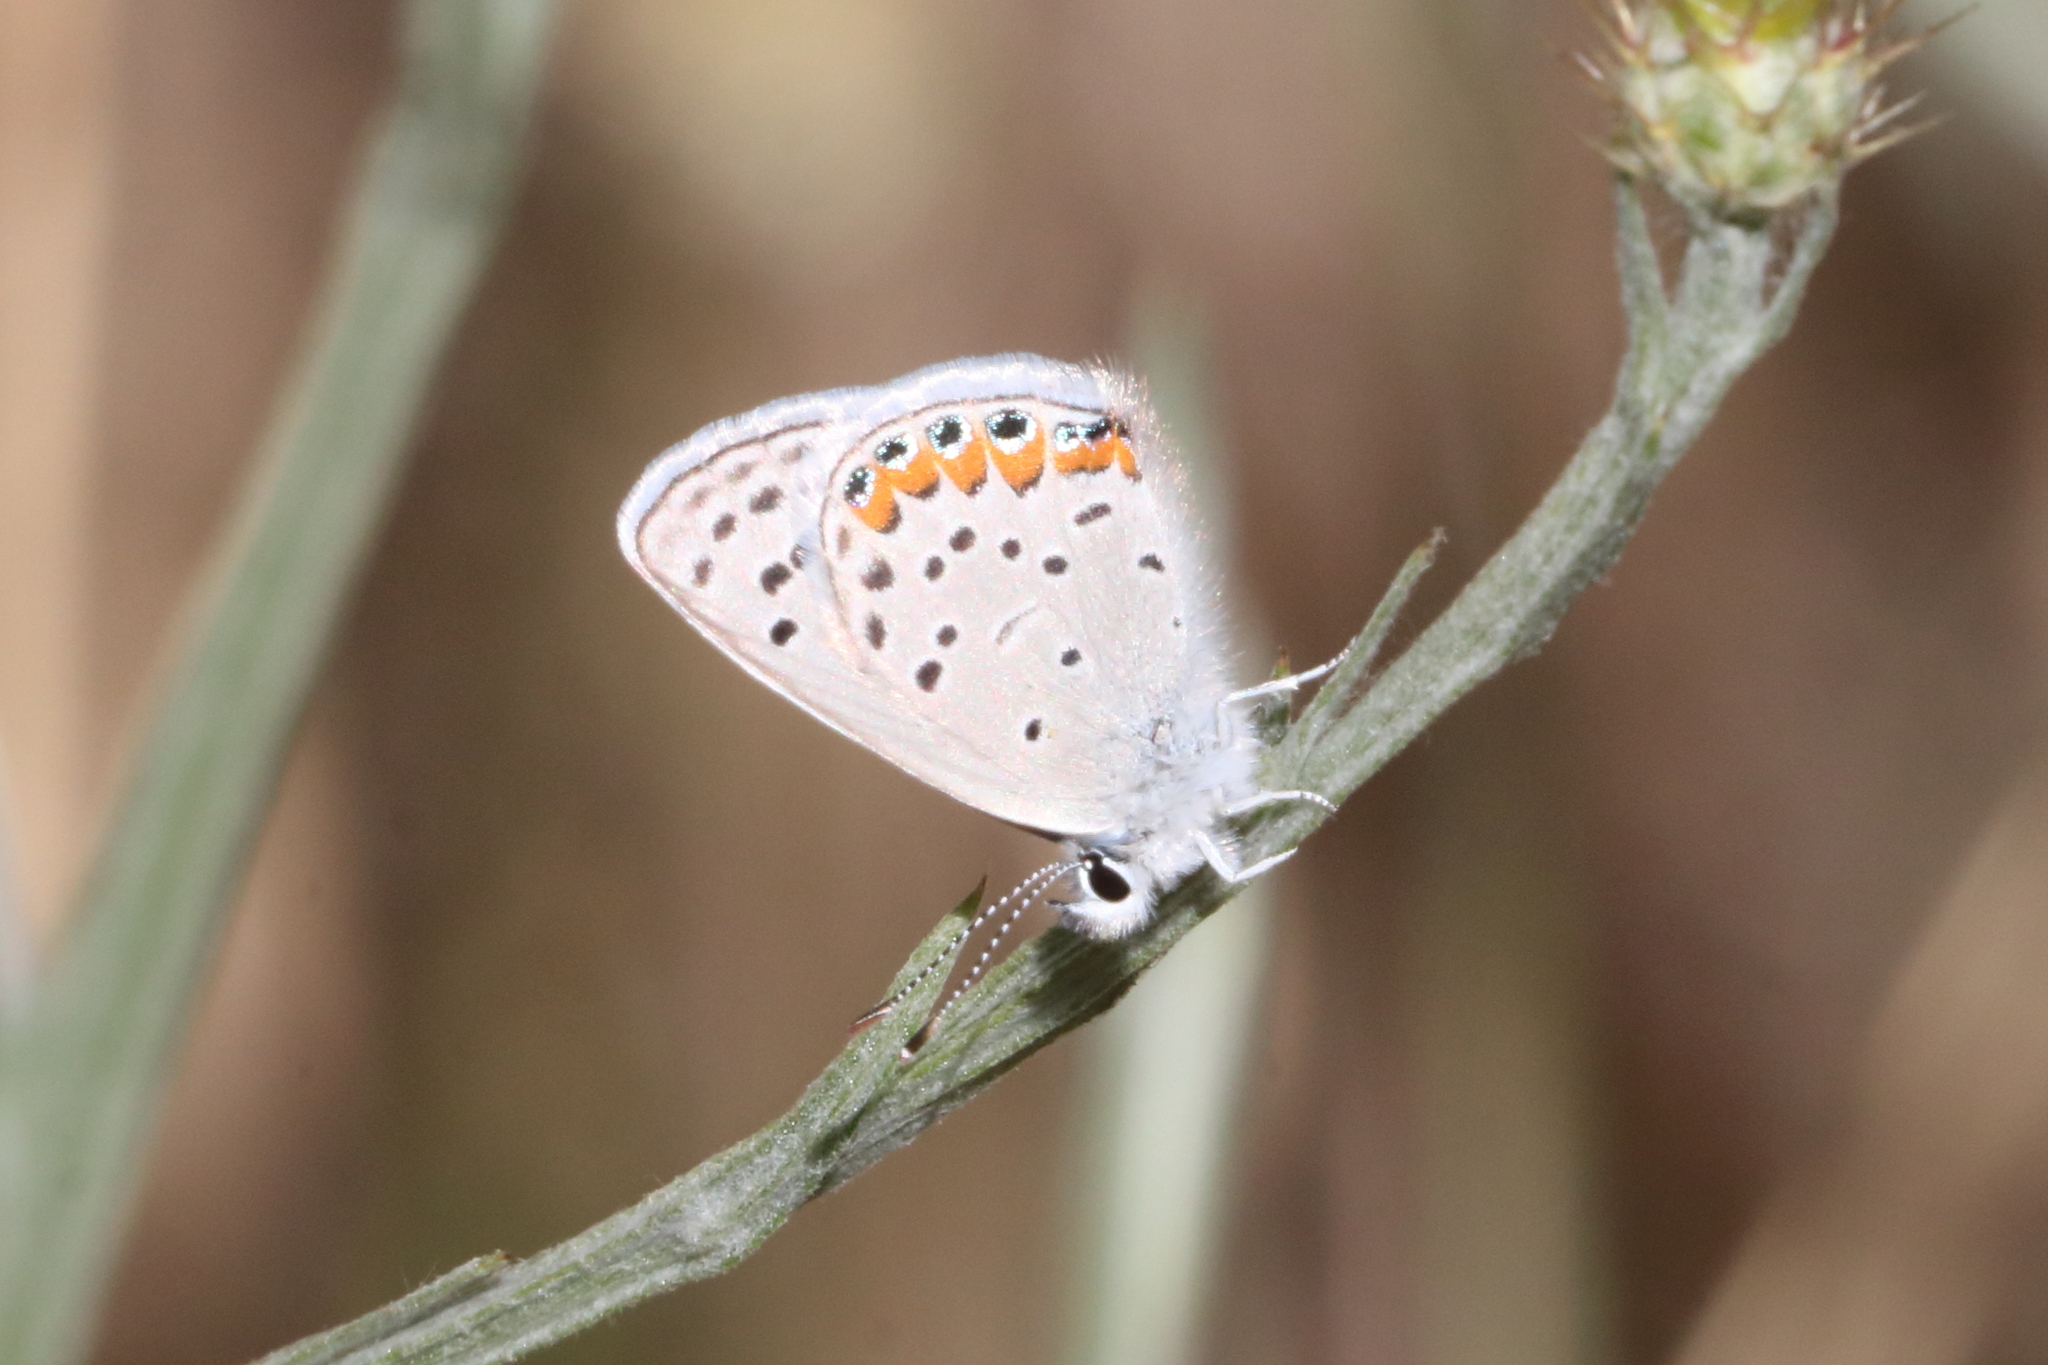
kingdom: Animalia
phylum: Arthropoda
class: Insecta
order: Lepidoptera
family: Lycaenidae
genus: Icaricia
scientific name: Icaricia acmon
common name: Acmon blue
